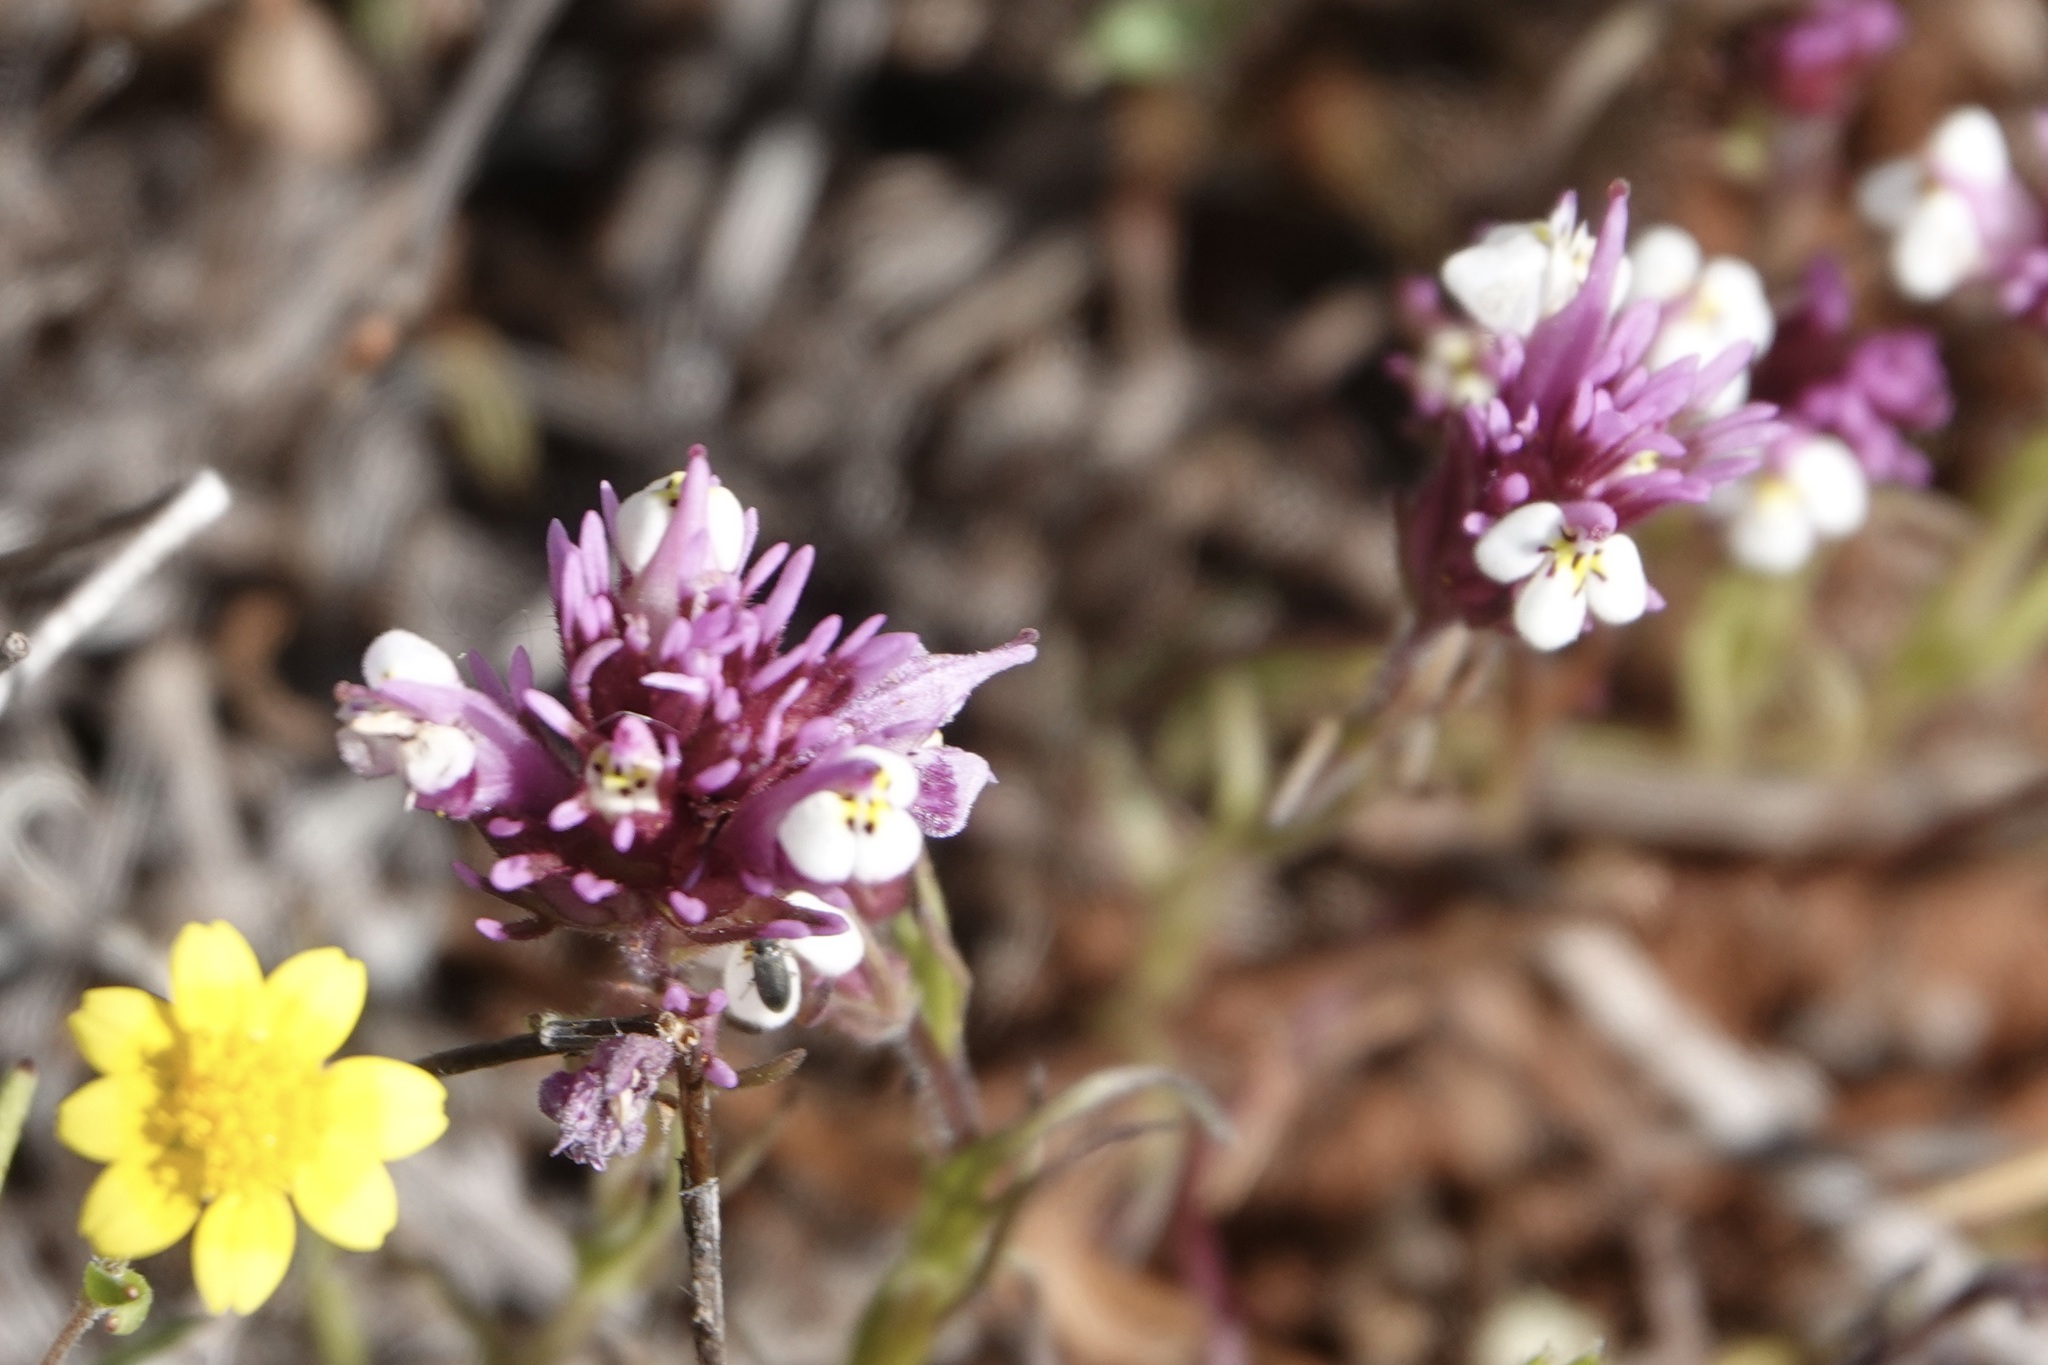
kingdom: Plantae
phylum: Tracheophyta
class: Magnoliopsida
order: Lamiales
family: Orobanchaceae
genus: Castilleja
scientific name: Castilleja exserta
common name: Purple owl-clover
